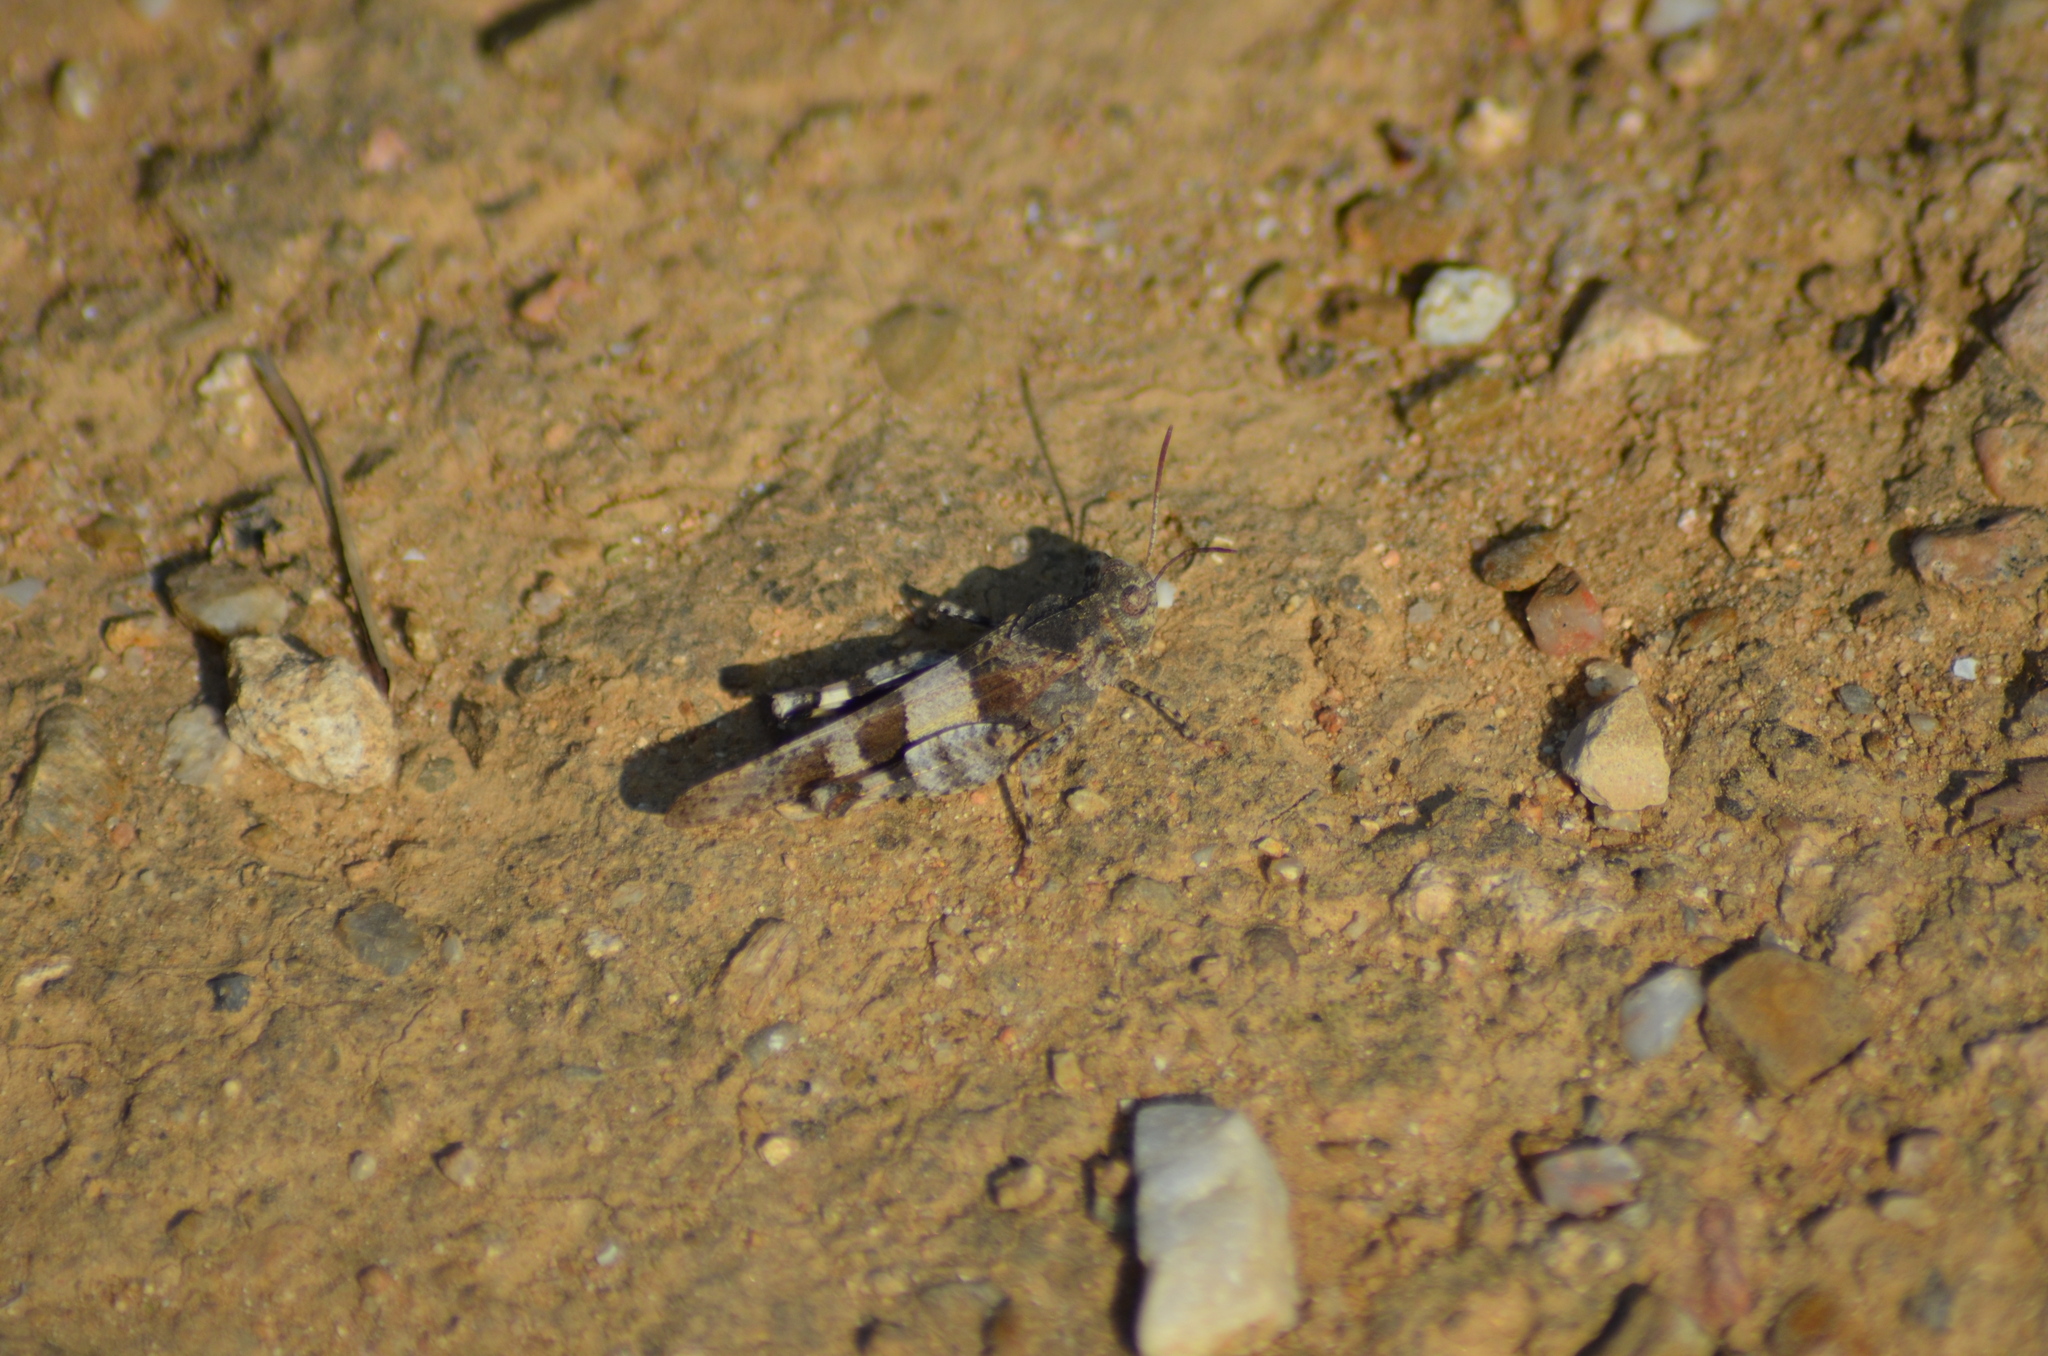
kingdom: Animalia
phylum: Arthropoda
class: Insecta
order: Orthoptera
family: Acrididae
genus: Oedipoda
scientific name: Oedipoda caerulescens
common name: Blue-winged grasshopper
